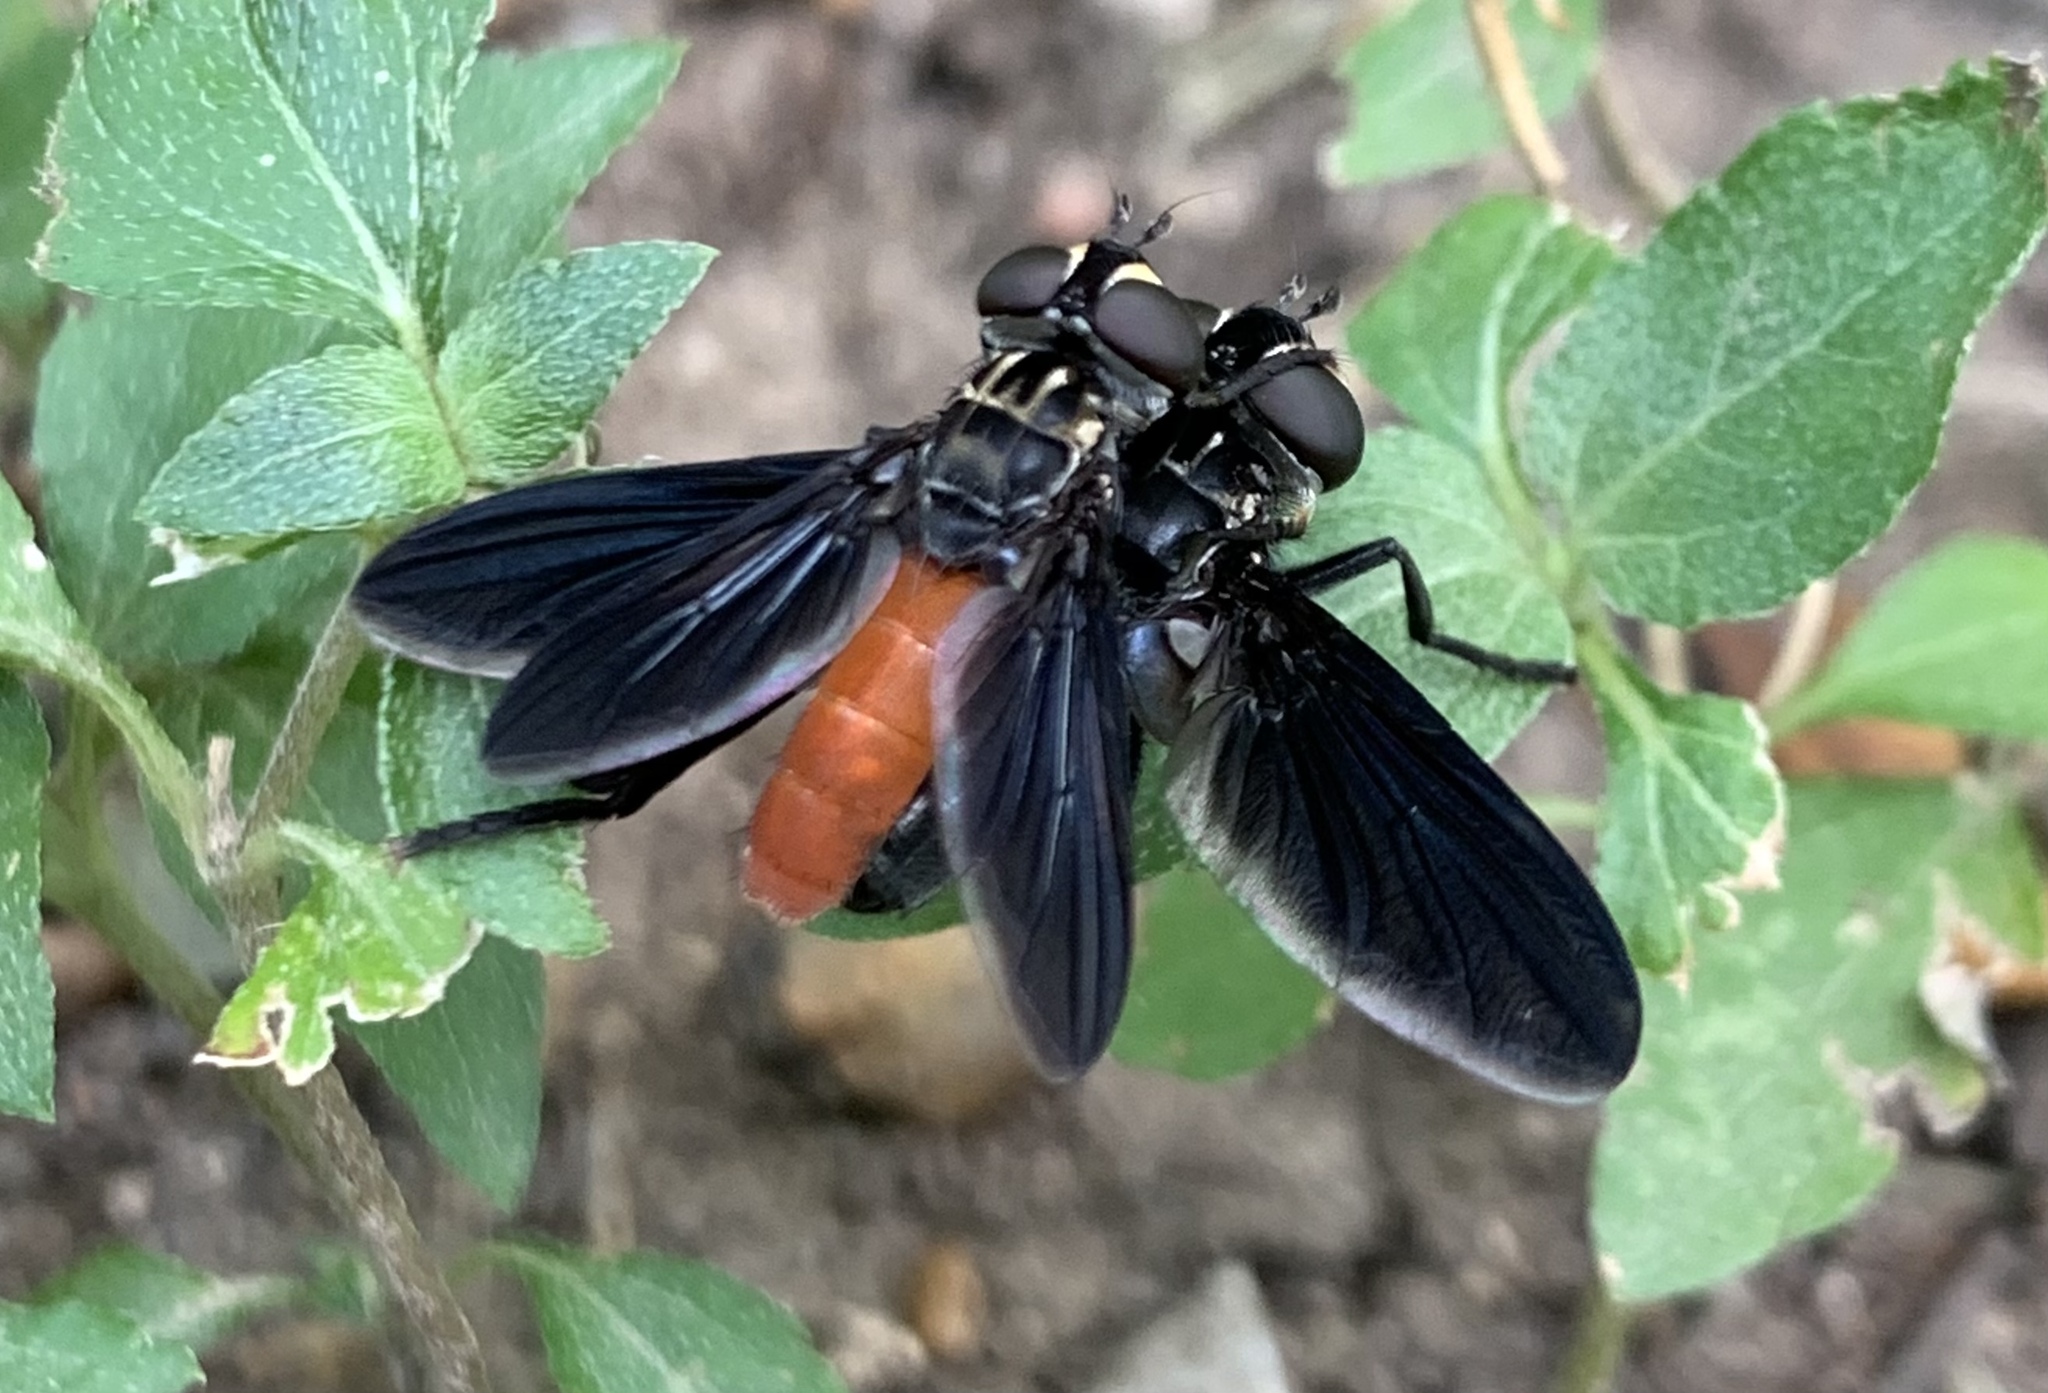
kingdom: Animalia
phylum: Arthropoda
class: Insecta
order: Diptera
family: Tachinidae
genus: Trichopoda
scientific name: Trichopoda lanipes
